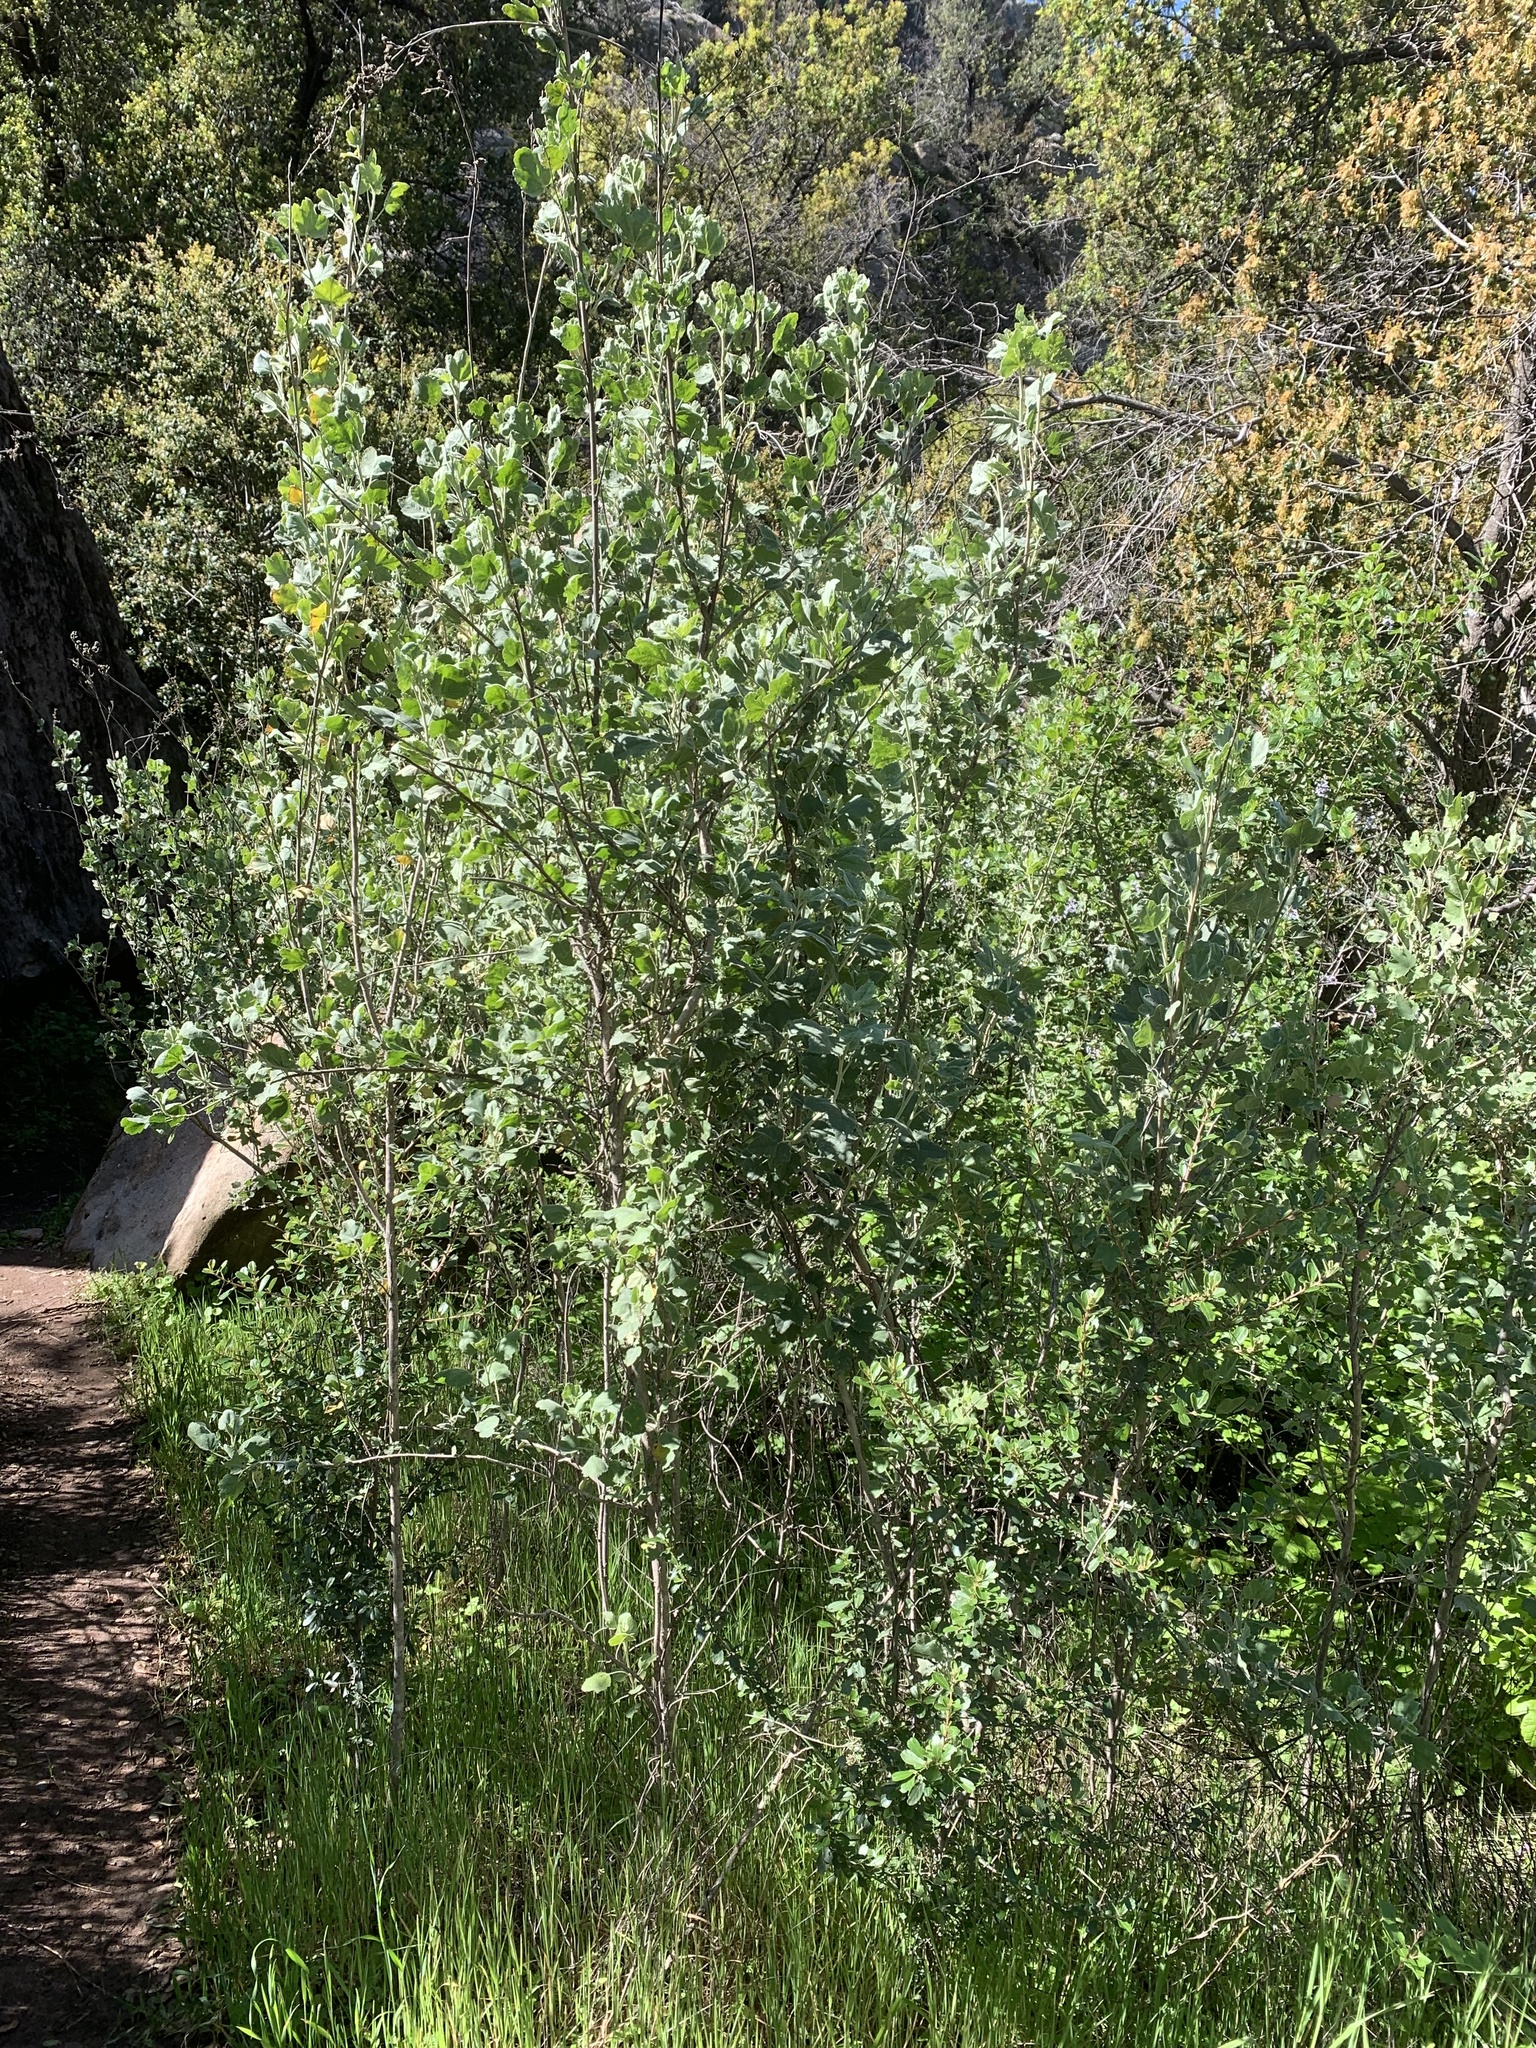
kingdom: Plantae
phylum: Tracheophyta
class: Magnoliopsida
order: Malvales
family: Malvaceae
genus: Malacothamnus
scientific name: Malacothamnus fasciculatus
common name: Sant cruz island bush-mallow
